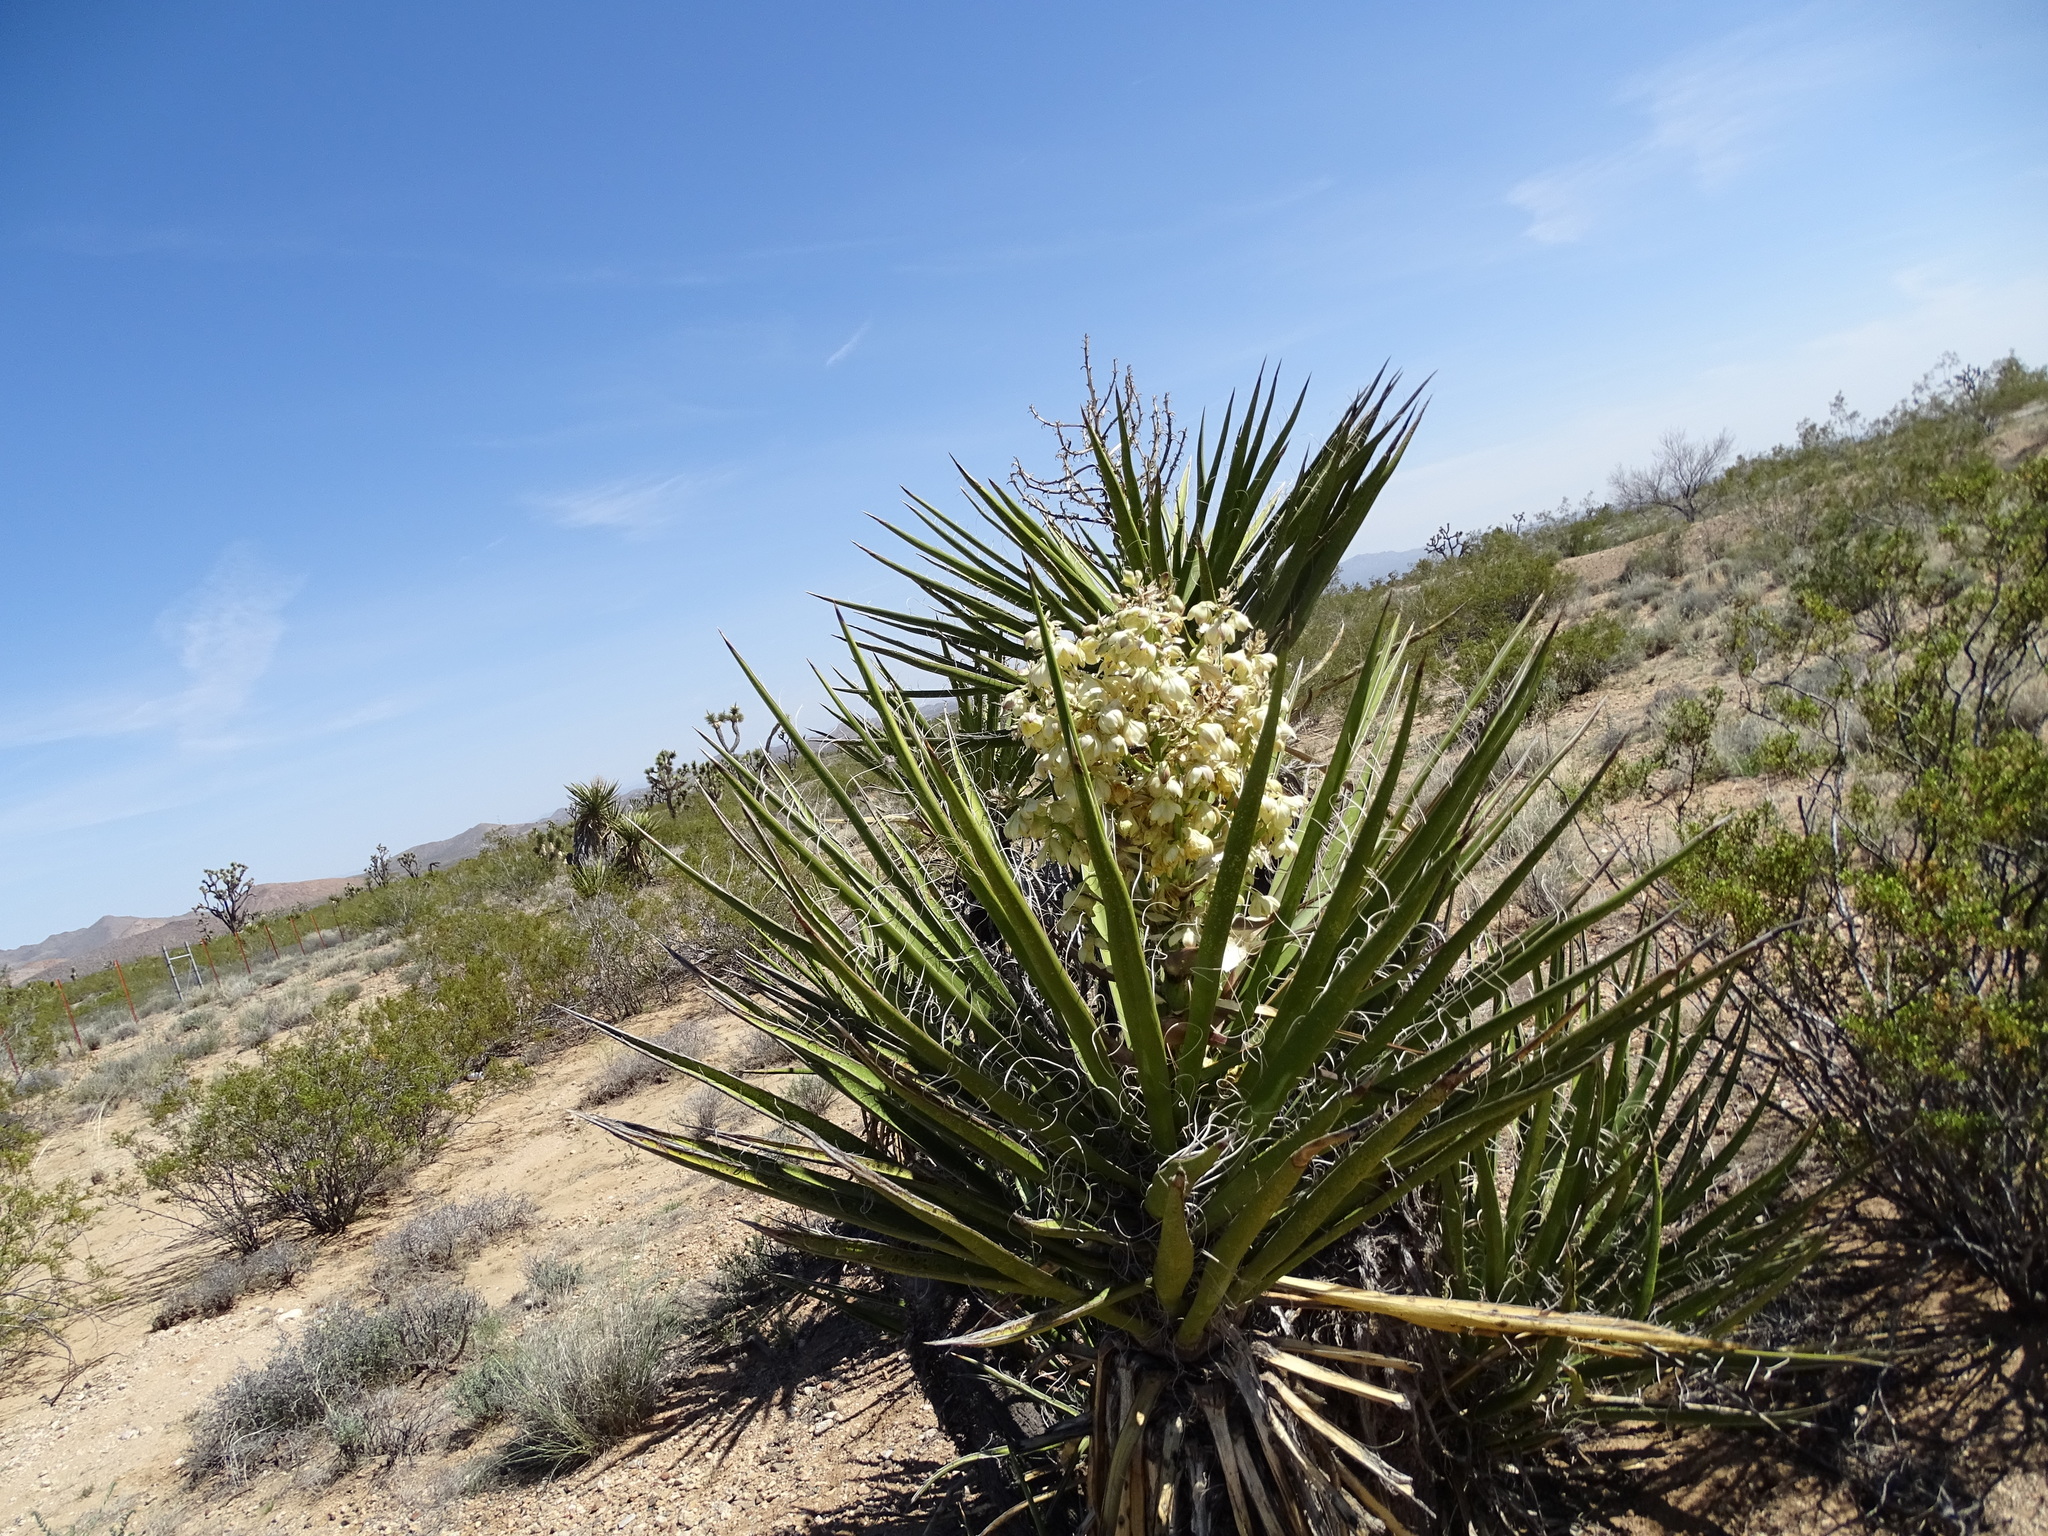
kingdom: Plantae
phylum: Tracheophyta
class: Liliopsida
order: Asparagales
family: Asparagaceae
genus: Yucca
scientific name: Yucca schidigera
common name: Mojave yucca
